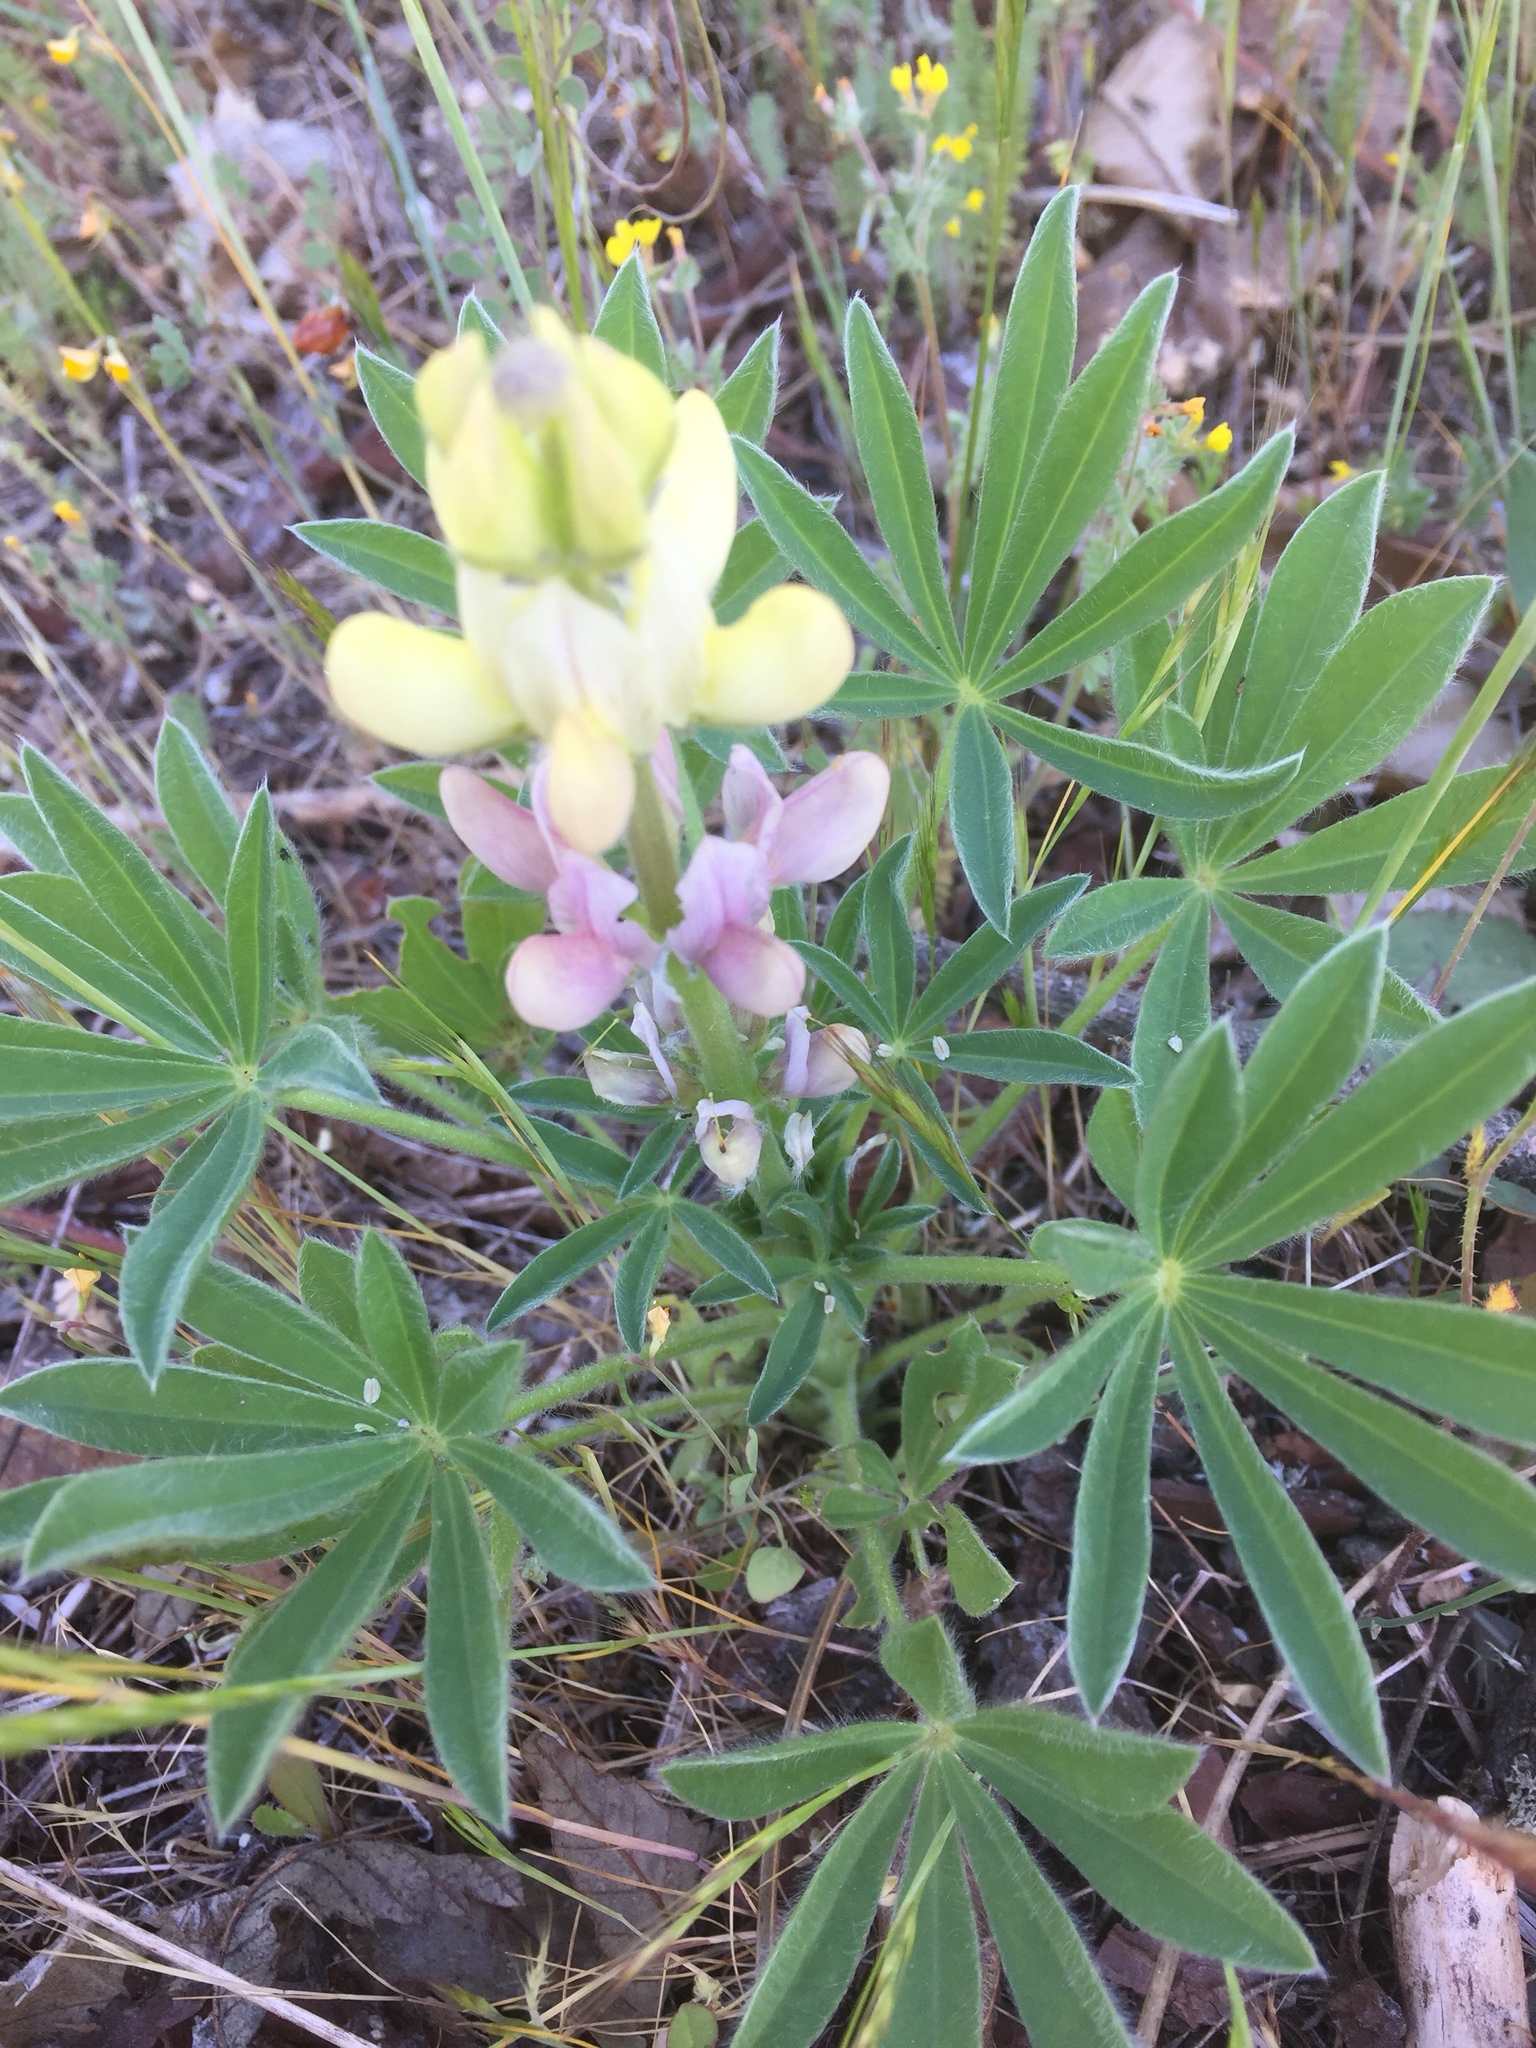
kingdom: Plantae
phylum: Tracheophyta
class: Magnoliopsida
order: Fabales
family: Fabaceae
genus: Lupinus
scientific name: Lupinus gredensis
